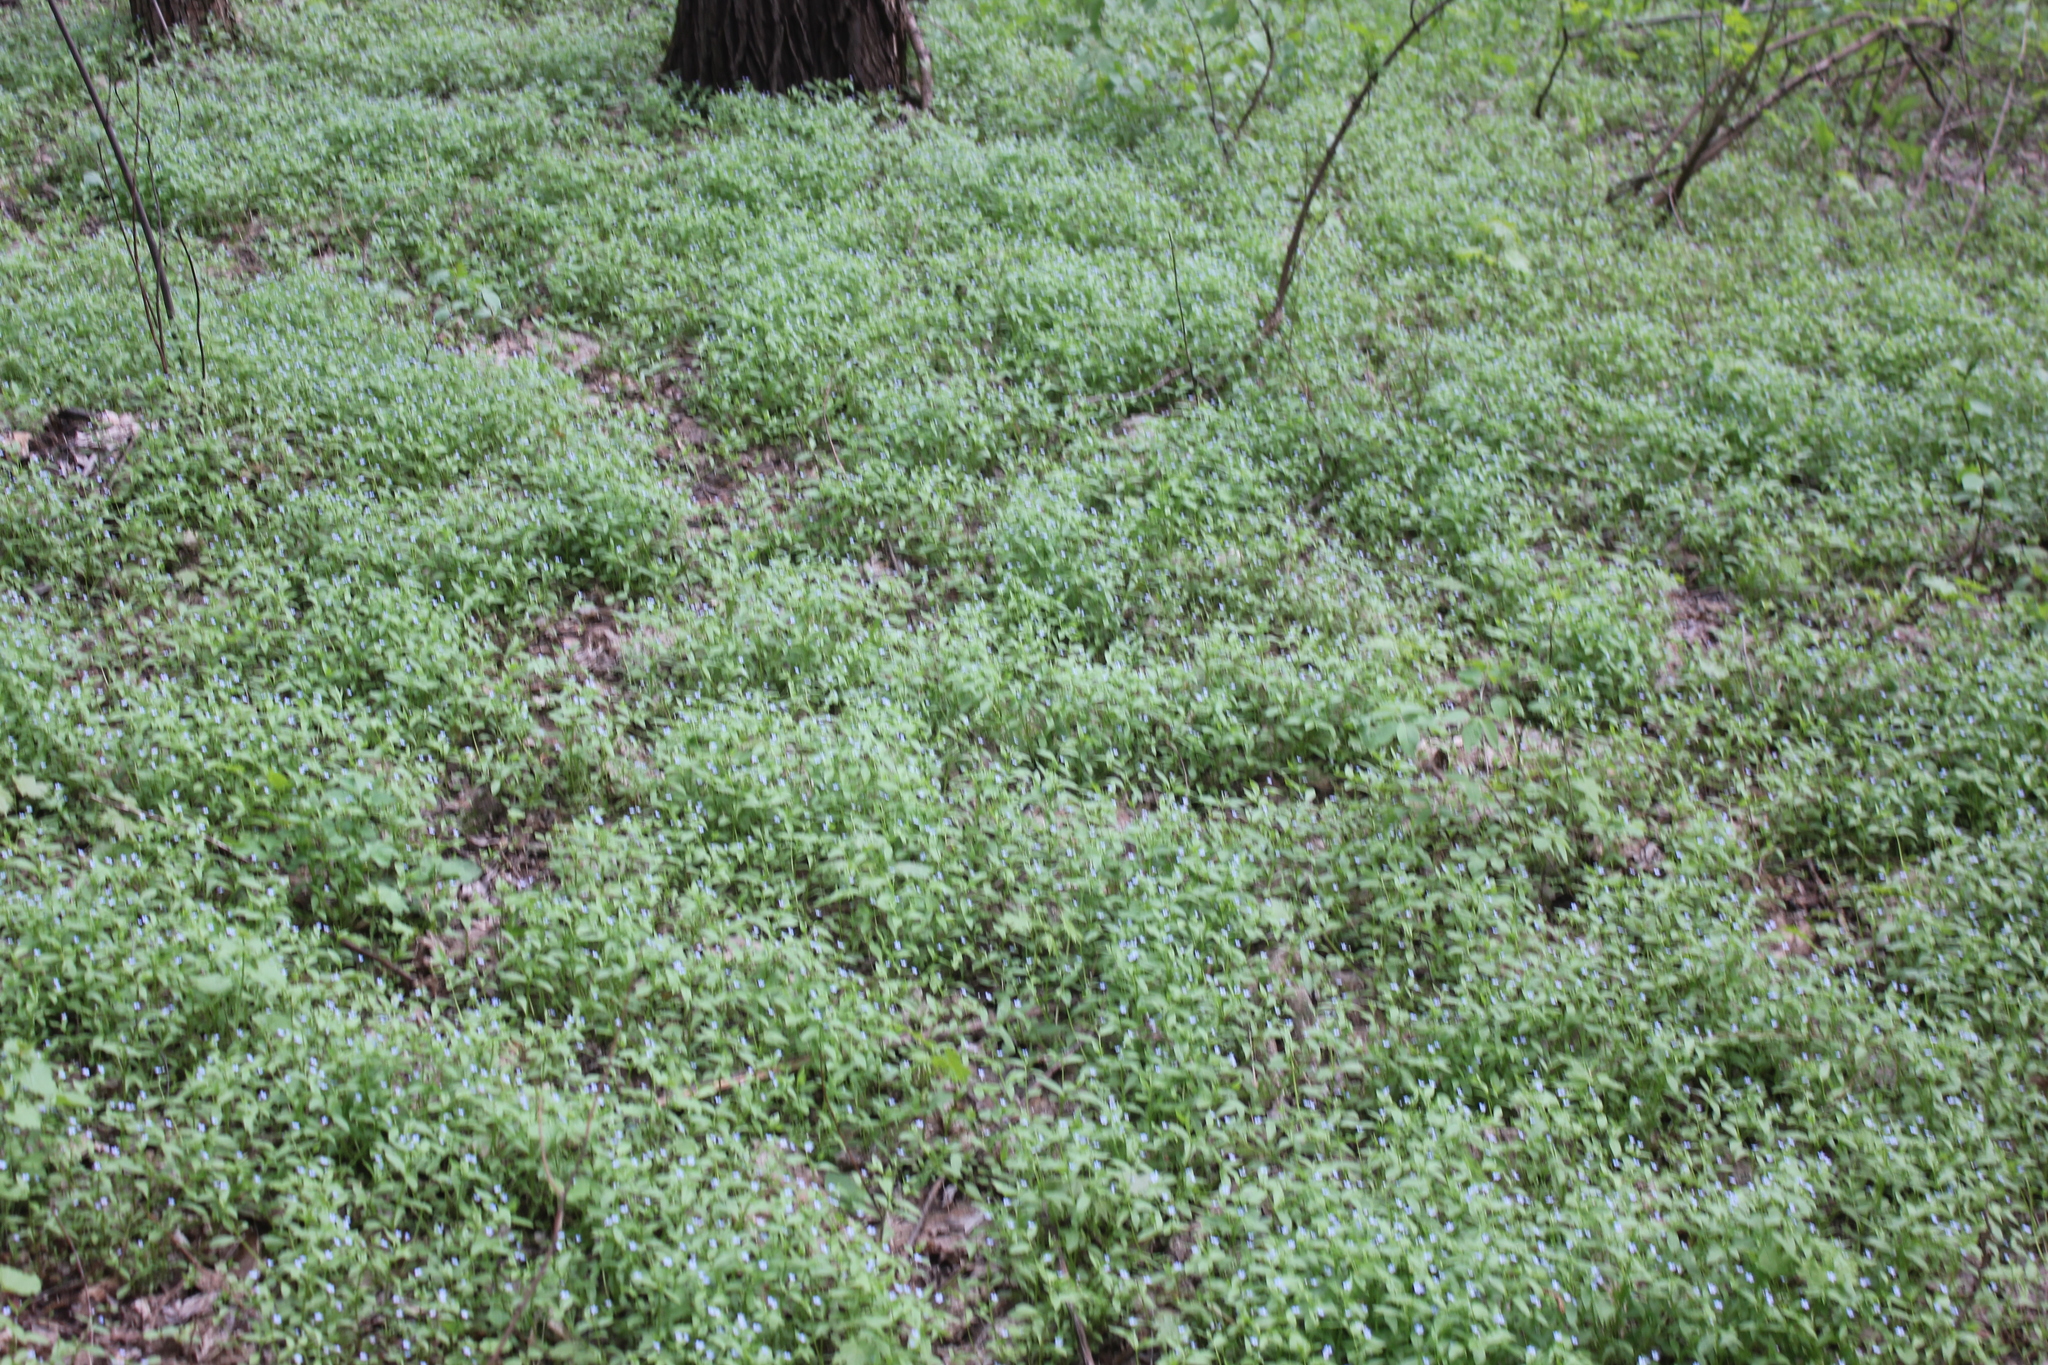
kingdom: Plantae
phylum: Tracheophyta
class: Magnoliopsida
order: Boraginales
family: Boraginaceae
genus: Memoremea
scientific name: Memoremea scorpioides
